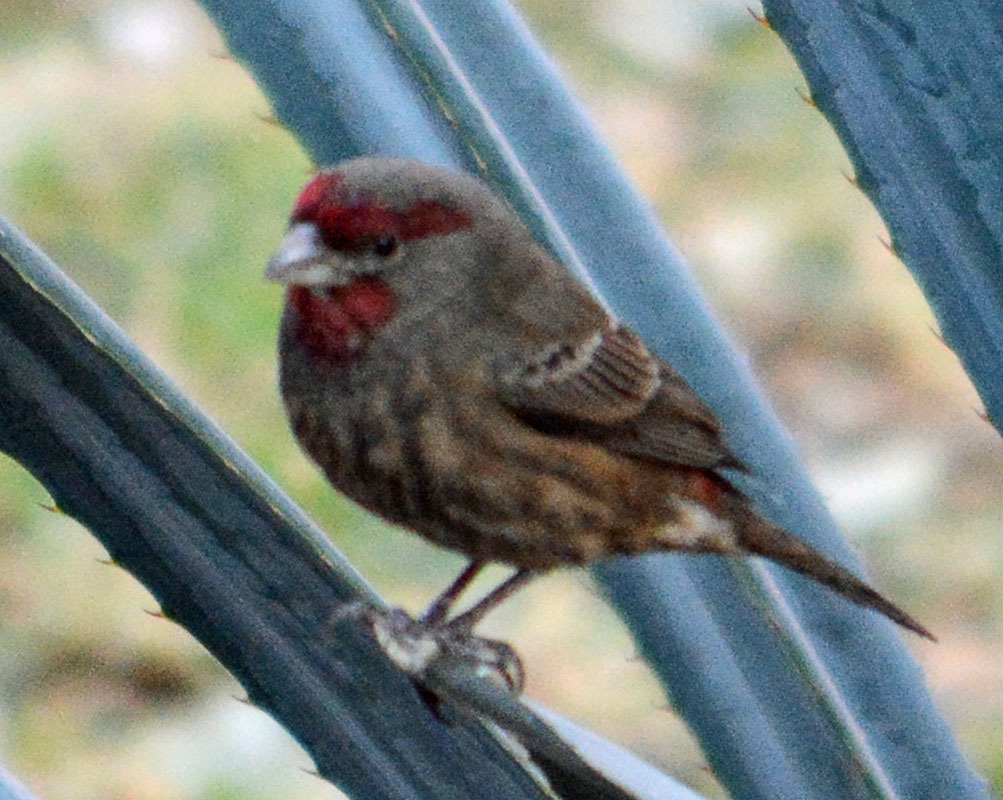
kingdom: Animalia
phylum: Chordata
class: Aves
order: Passeriformes
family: Fringillidae
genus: Haemorhous
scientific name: Haemorhous mexicanus
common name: House finch
